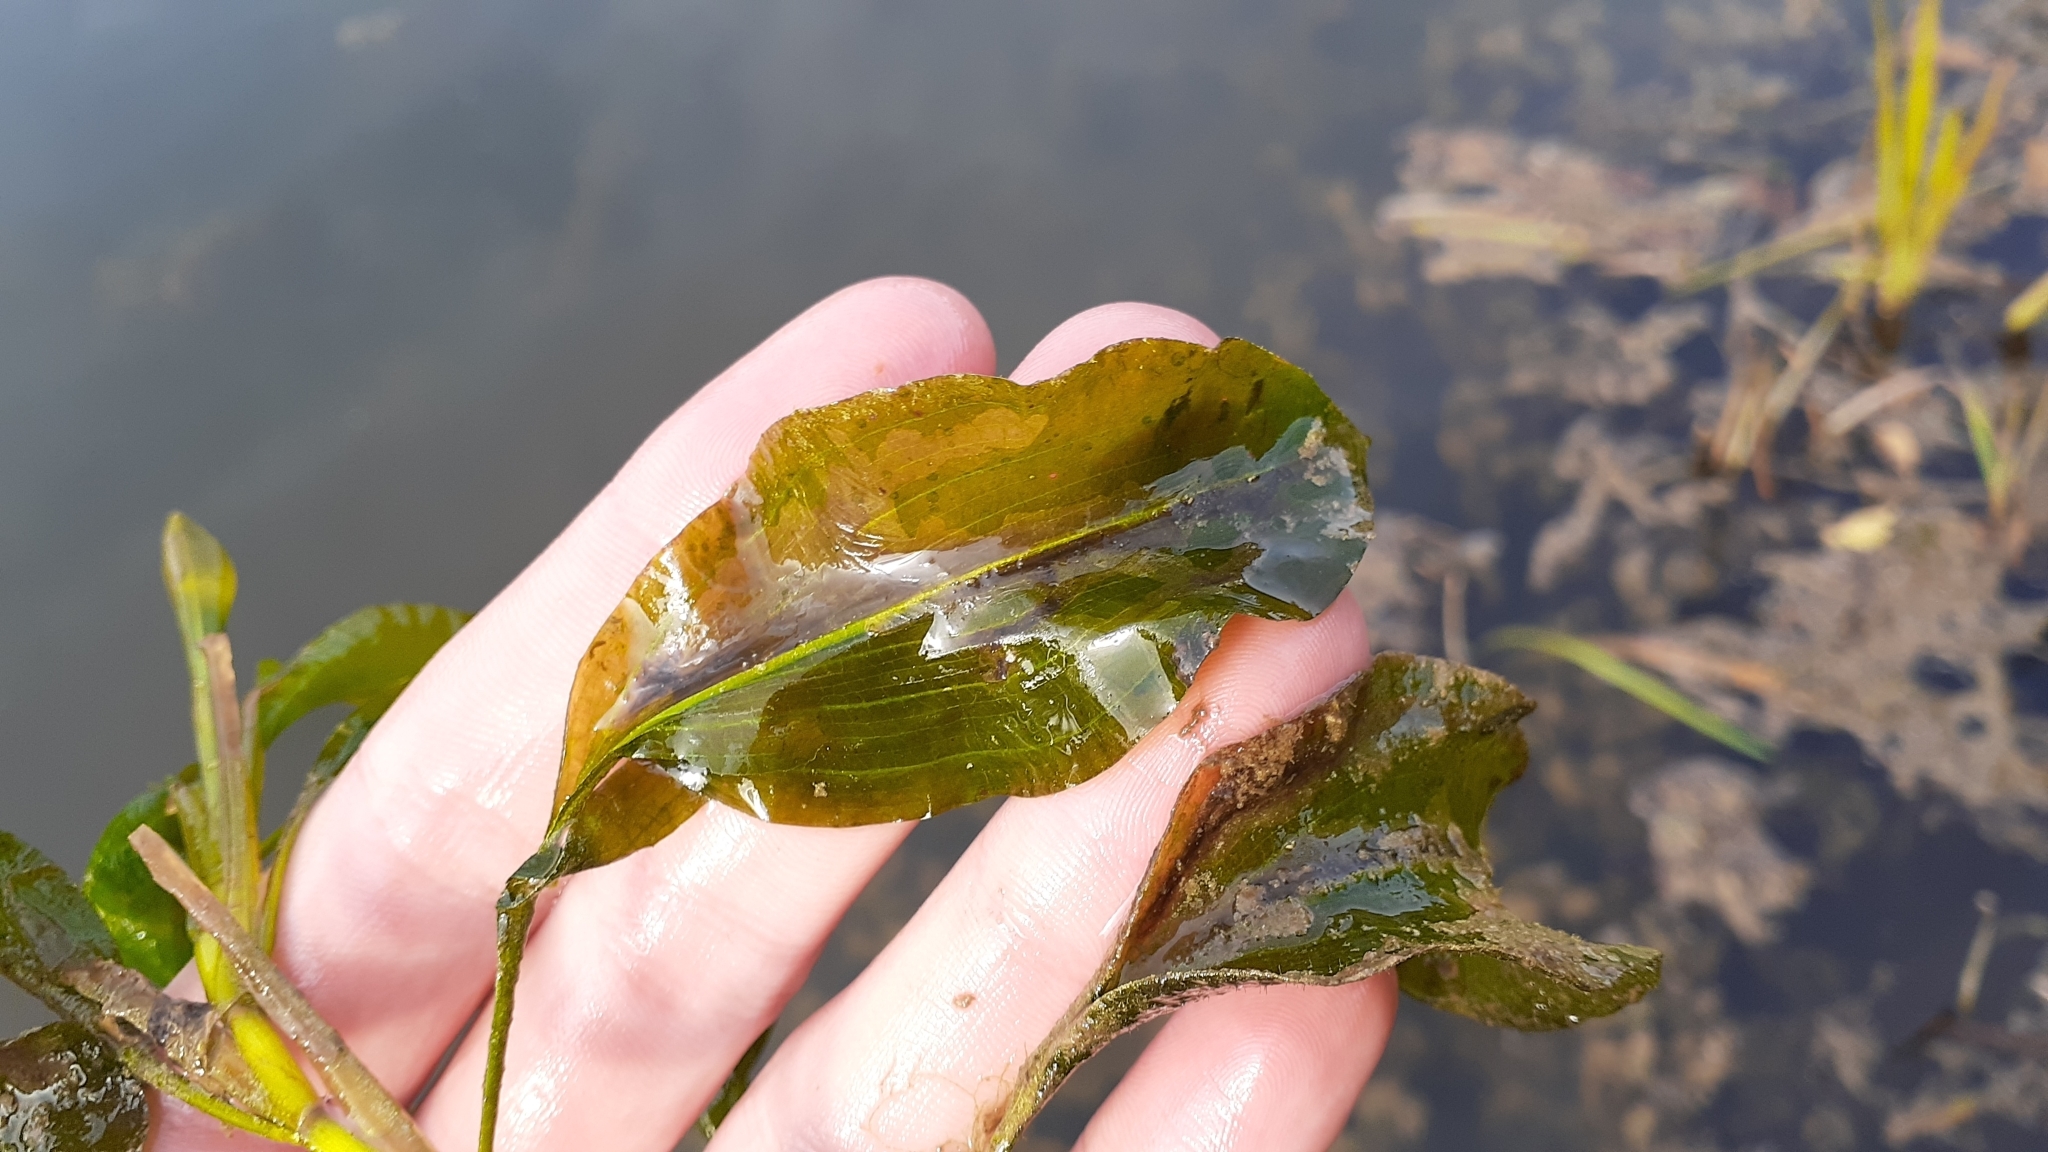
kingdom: Plantae
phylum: Tracheophyta
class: Liliopsida
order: Alismatales
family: Potamogetonaceae
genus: Potamogeton
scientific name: Potamogeton amplifolius
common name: Broad-leaved pondweed
